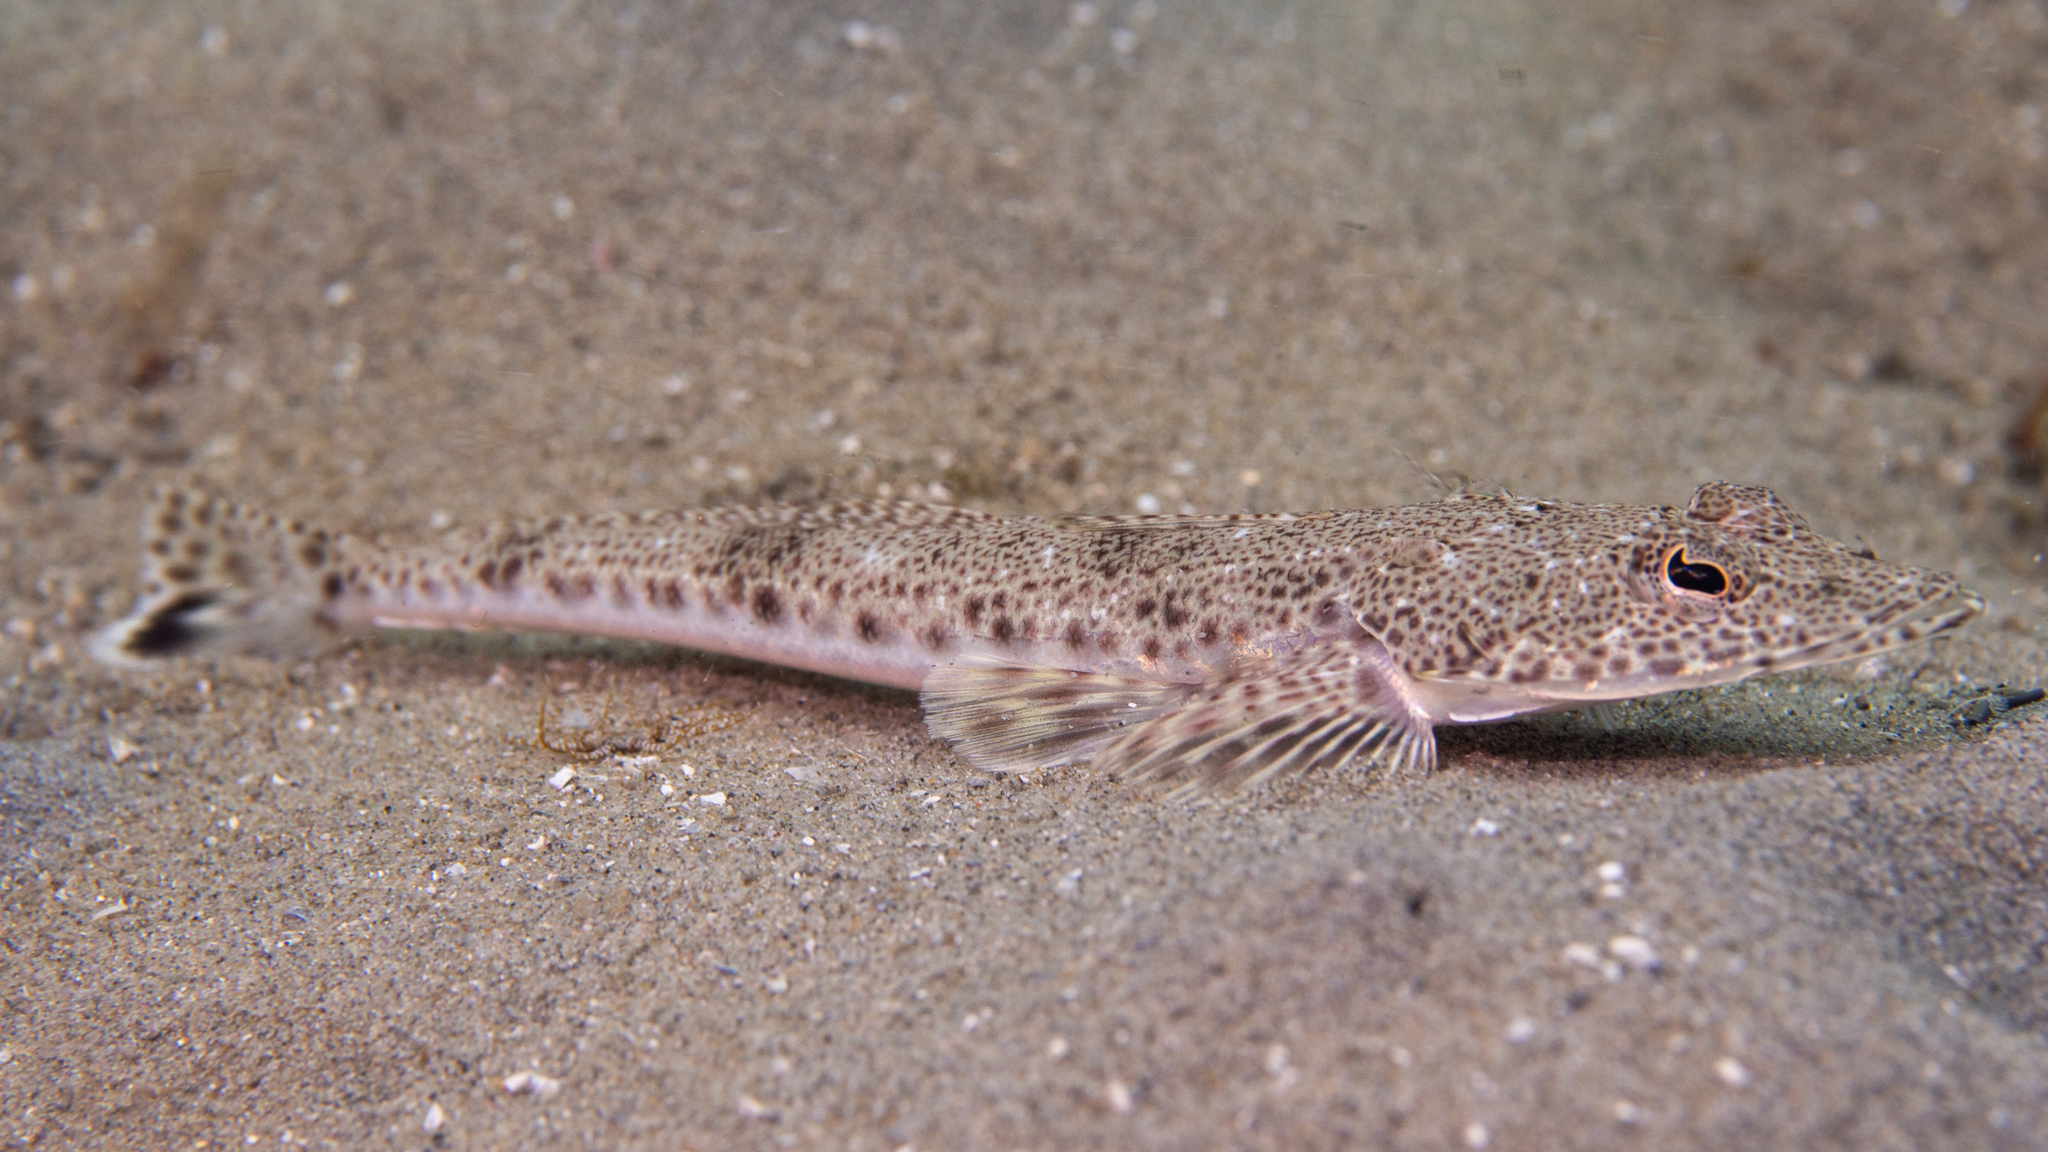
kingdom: Animalia
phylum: Chordata
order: Scorpaeniformes
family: Platycephalidae
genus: Platycephalus
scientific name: Platycephalus bassensis
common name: Sand flathead
